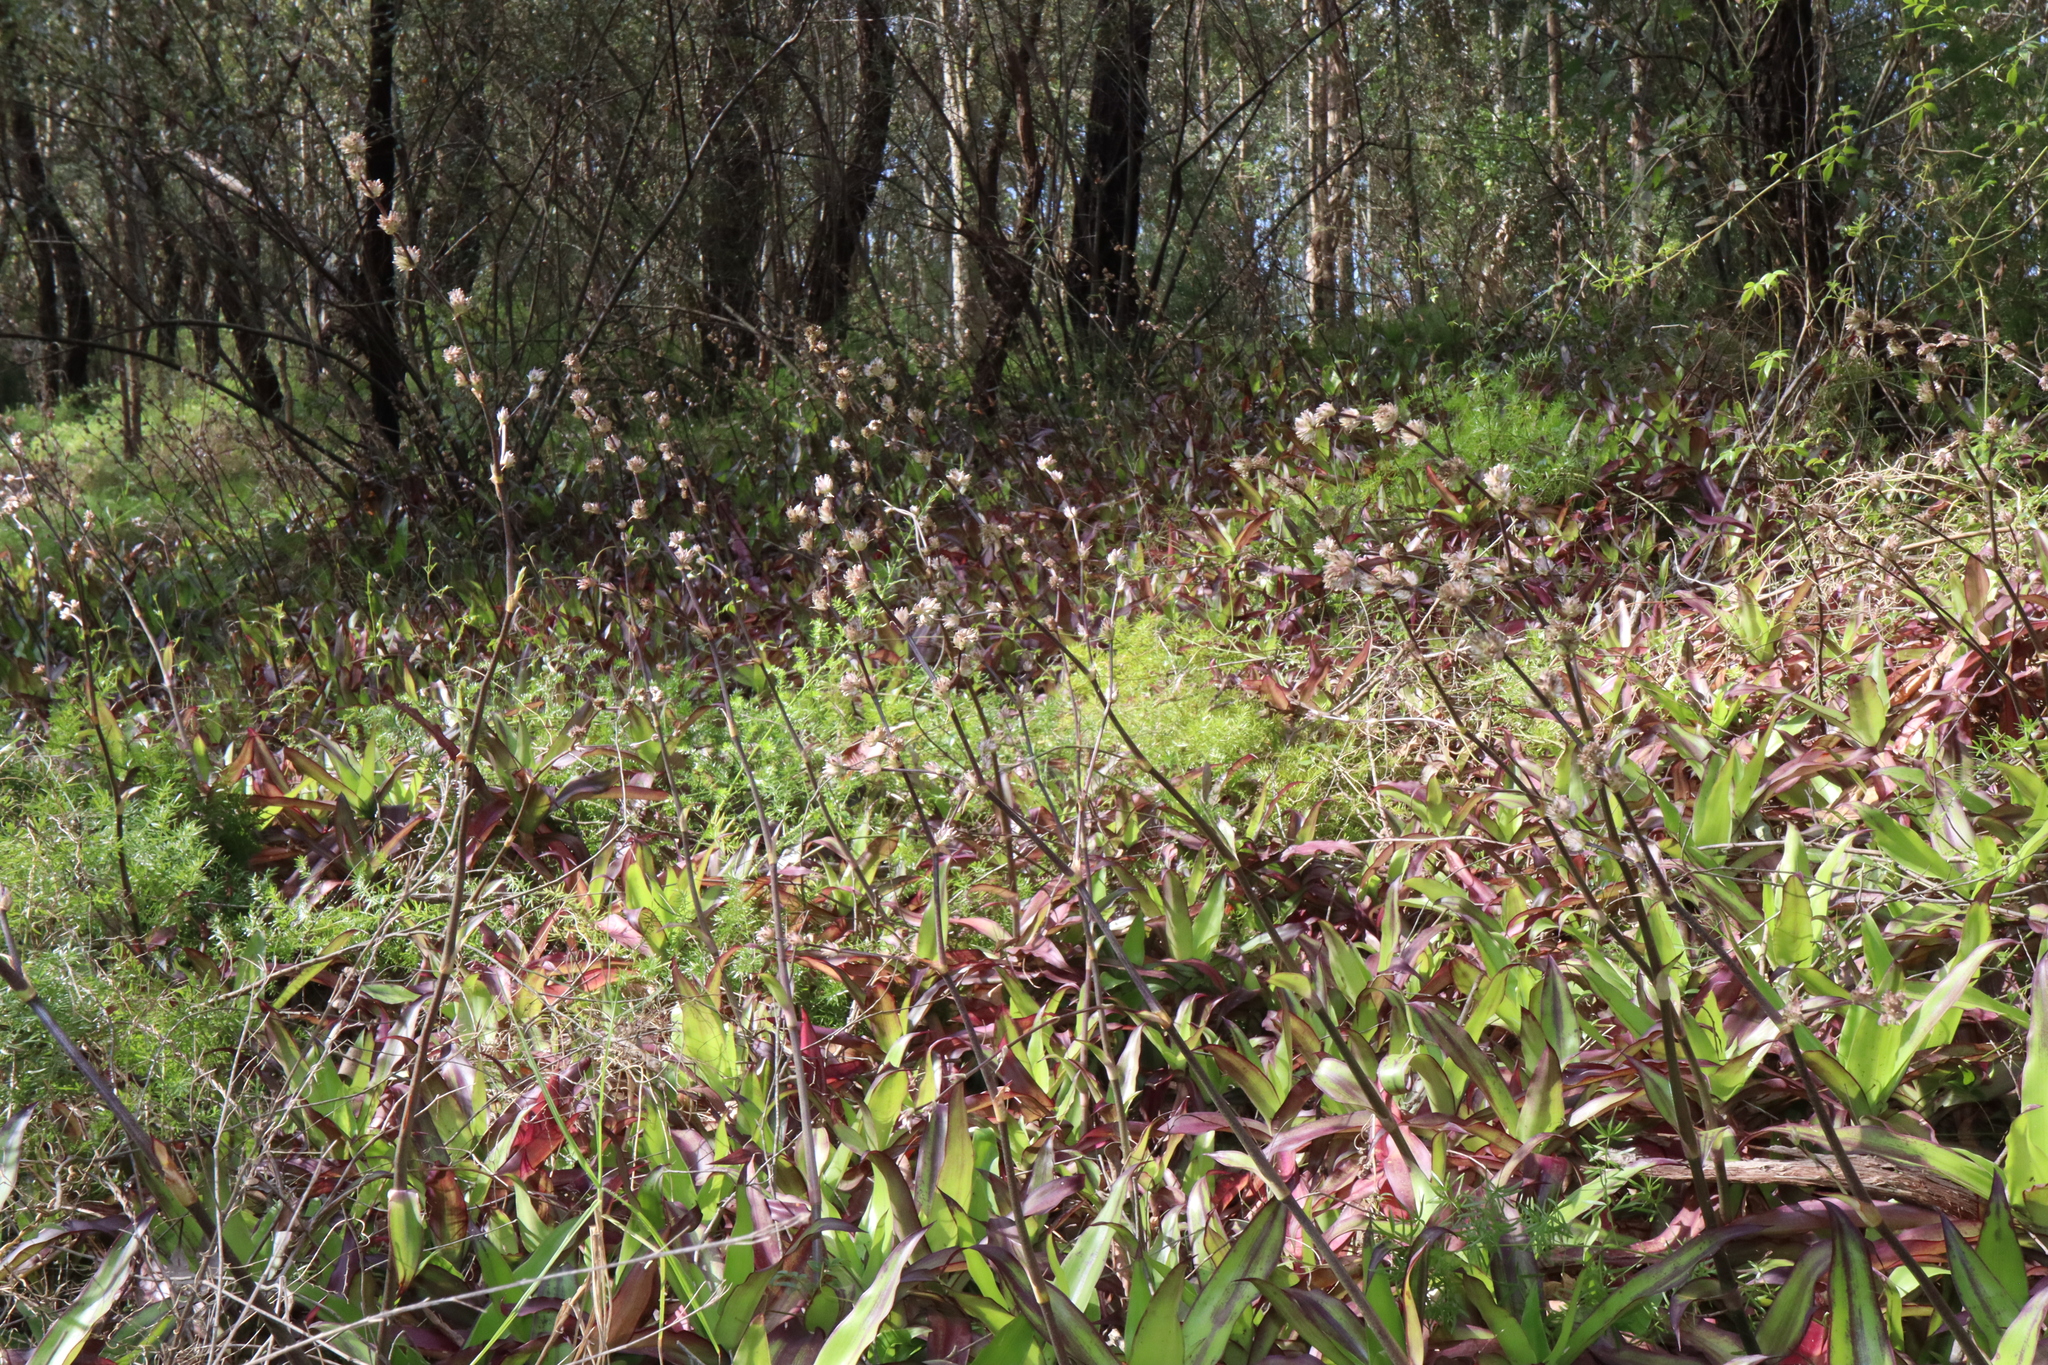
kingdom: Plantae
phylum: Tracheophyta
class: Liliopsida
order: Commelinales
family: Commelinaceae
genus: Callisia
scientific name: Callisia fragrans
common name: Basketplant
